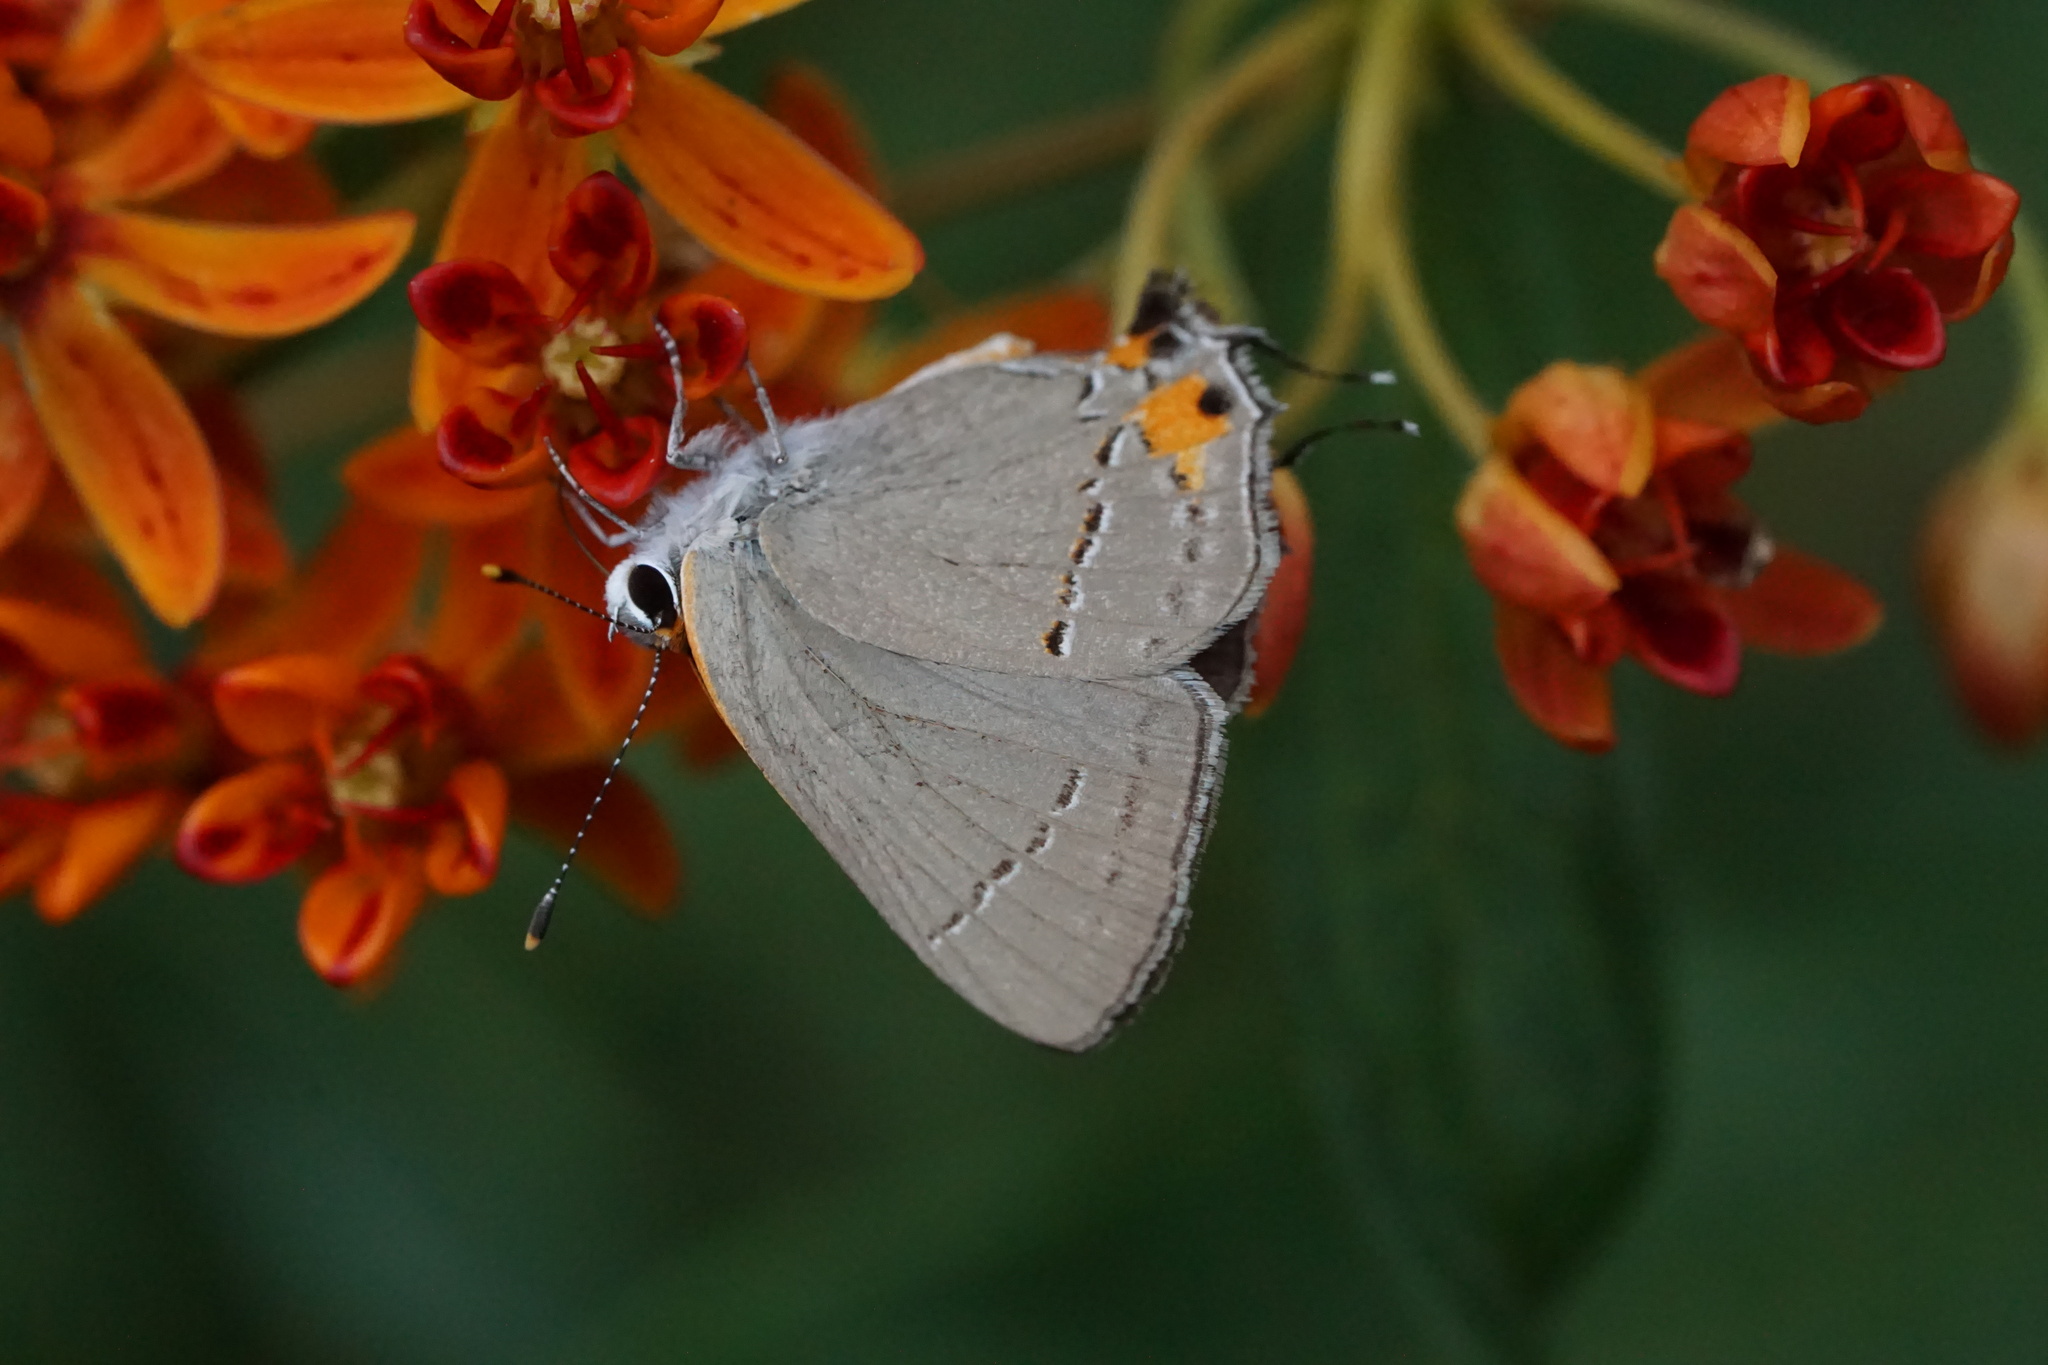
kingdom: Animalia
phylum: Arthropoda
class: Insecta
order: Lepidoptera
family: Lycaenidae
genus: Strymon
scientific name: Strymon melinus
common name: Gray hairstreak
